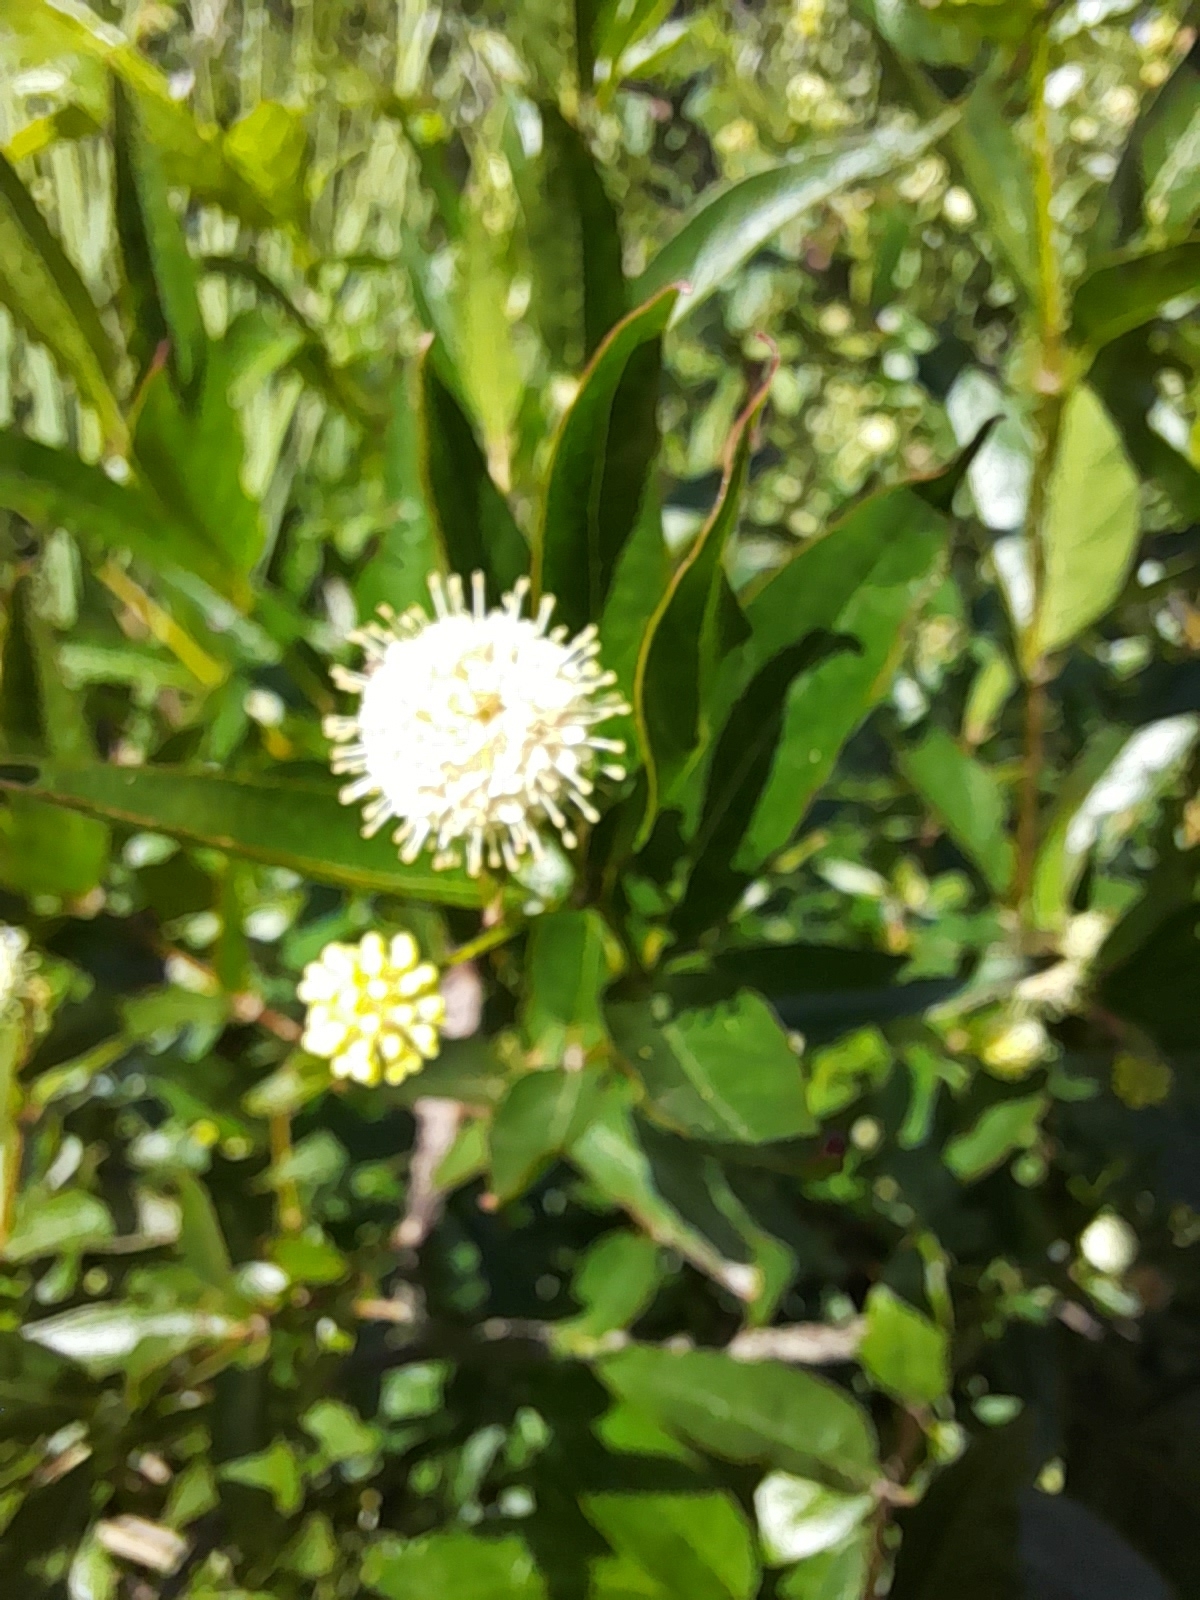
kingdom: Plantae
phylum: Tracheophyta
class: Magnoliopsida
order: Gentianales
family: Rubiaceae
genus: Cephalanthus
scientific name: Cephalanthus glabratus
